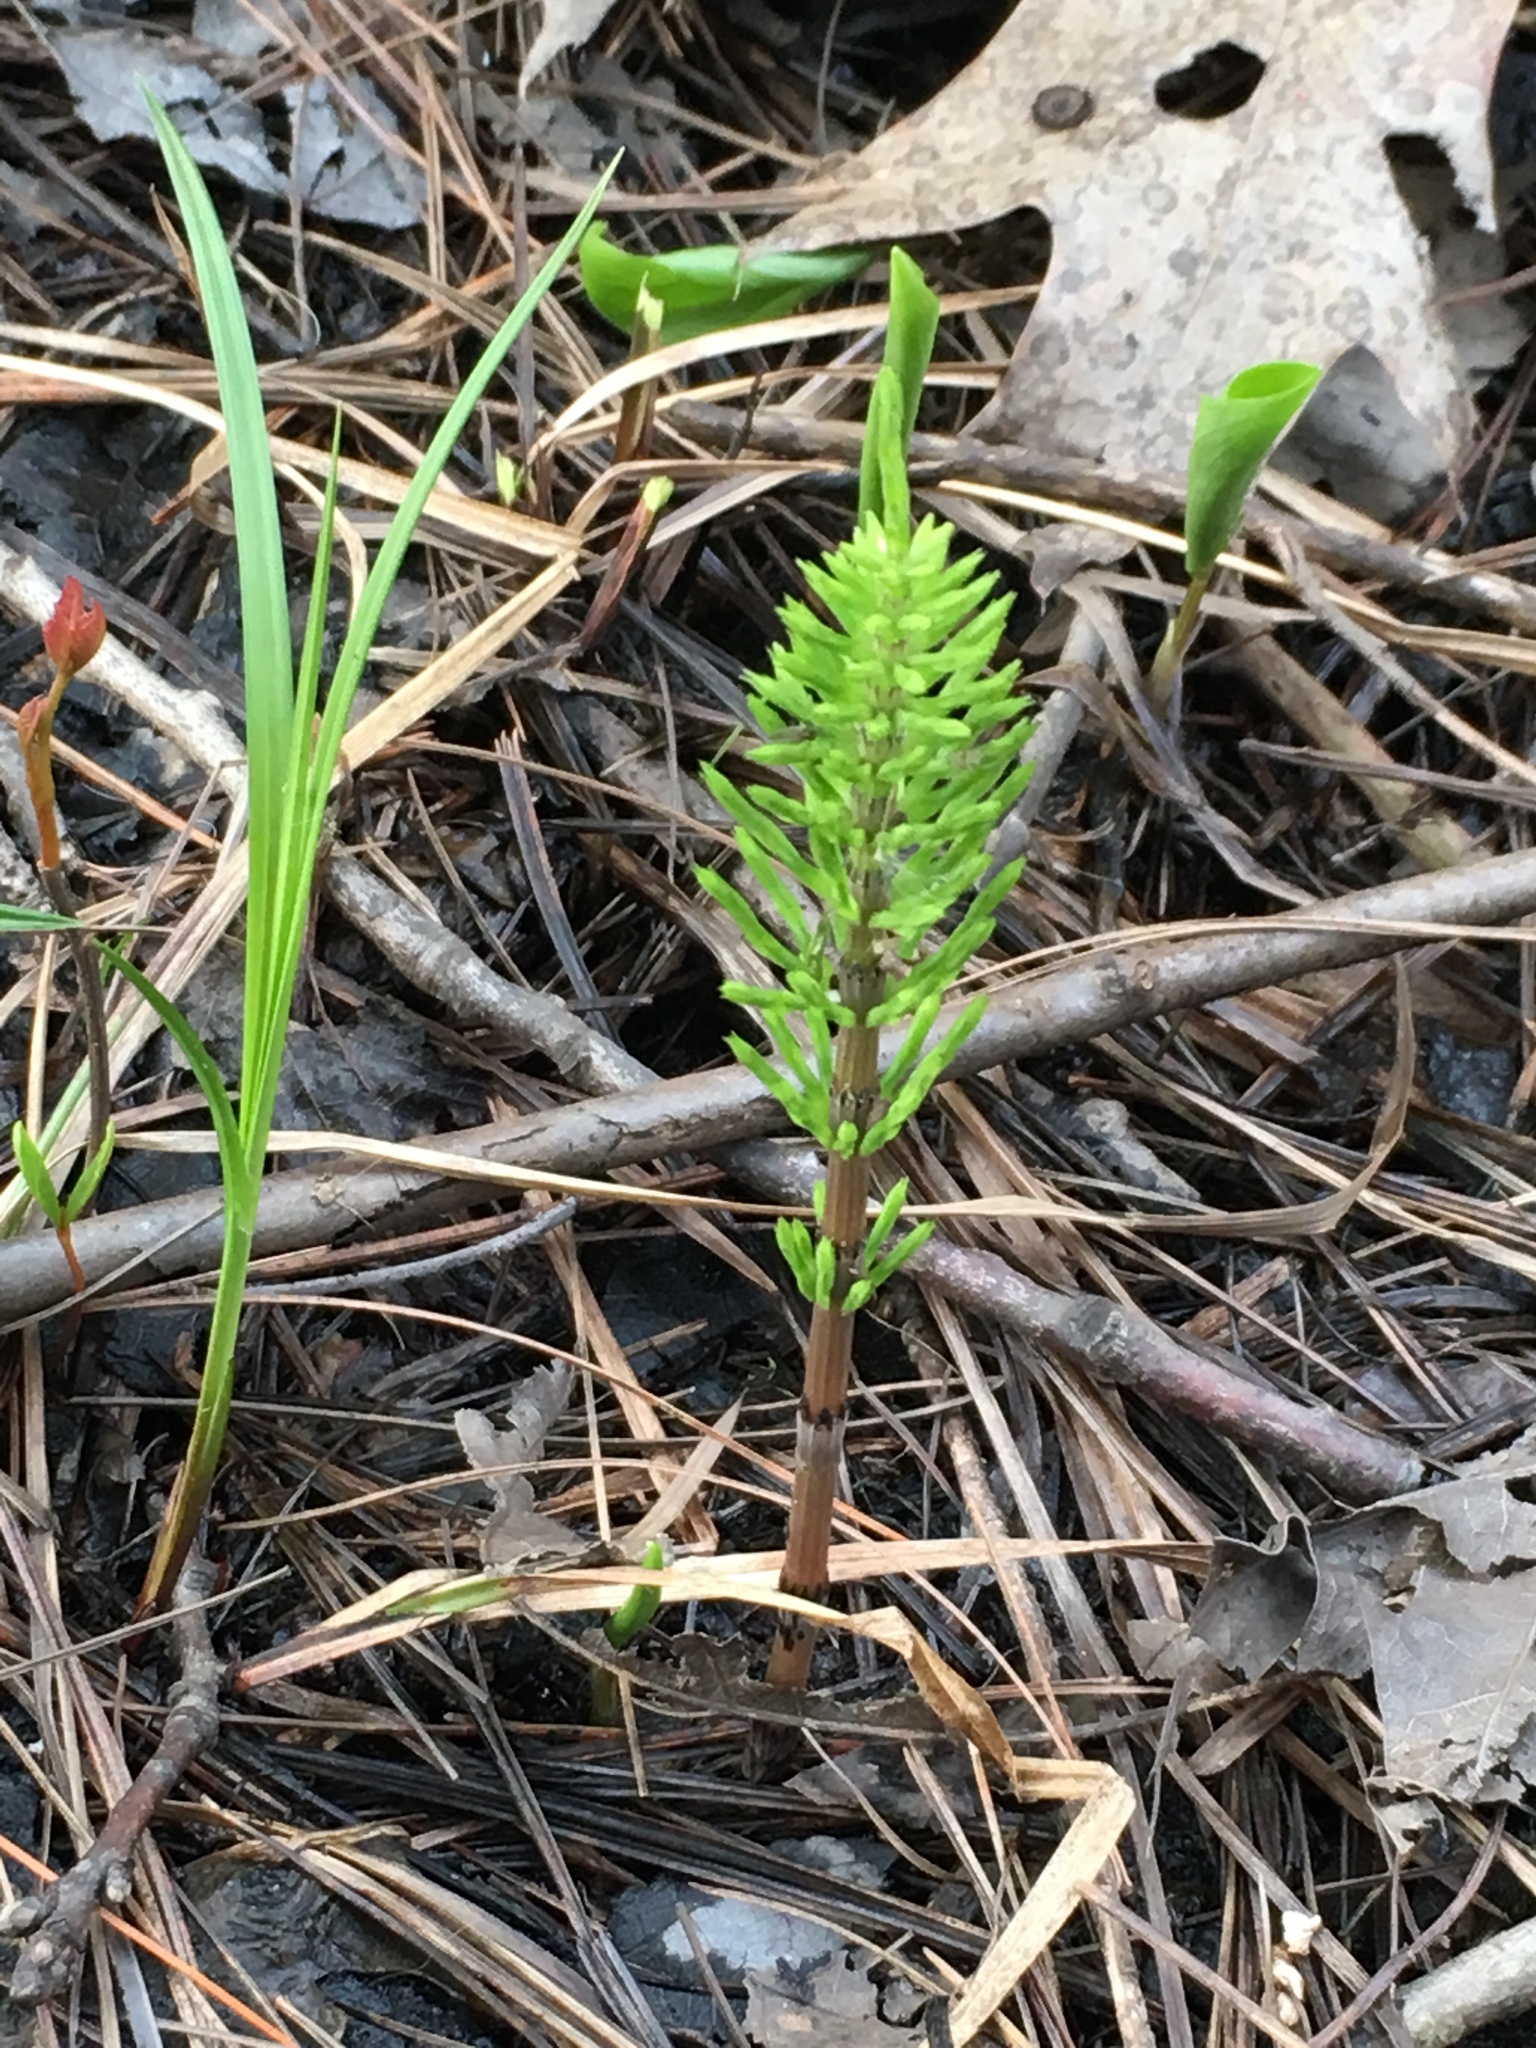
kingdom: Plantae
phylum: Tracheophyta
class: Polypodiopsida
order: Equisetales
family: Equisetaceae
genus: Equisetum
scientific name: Equisetum arvense
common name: Field horsetail
